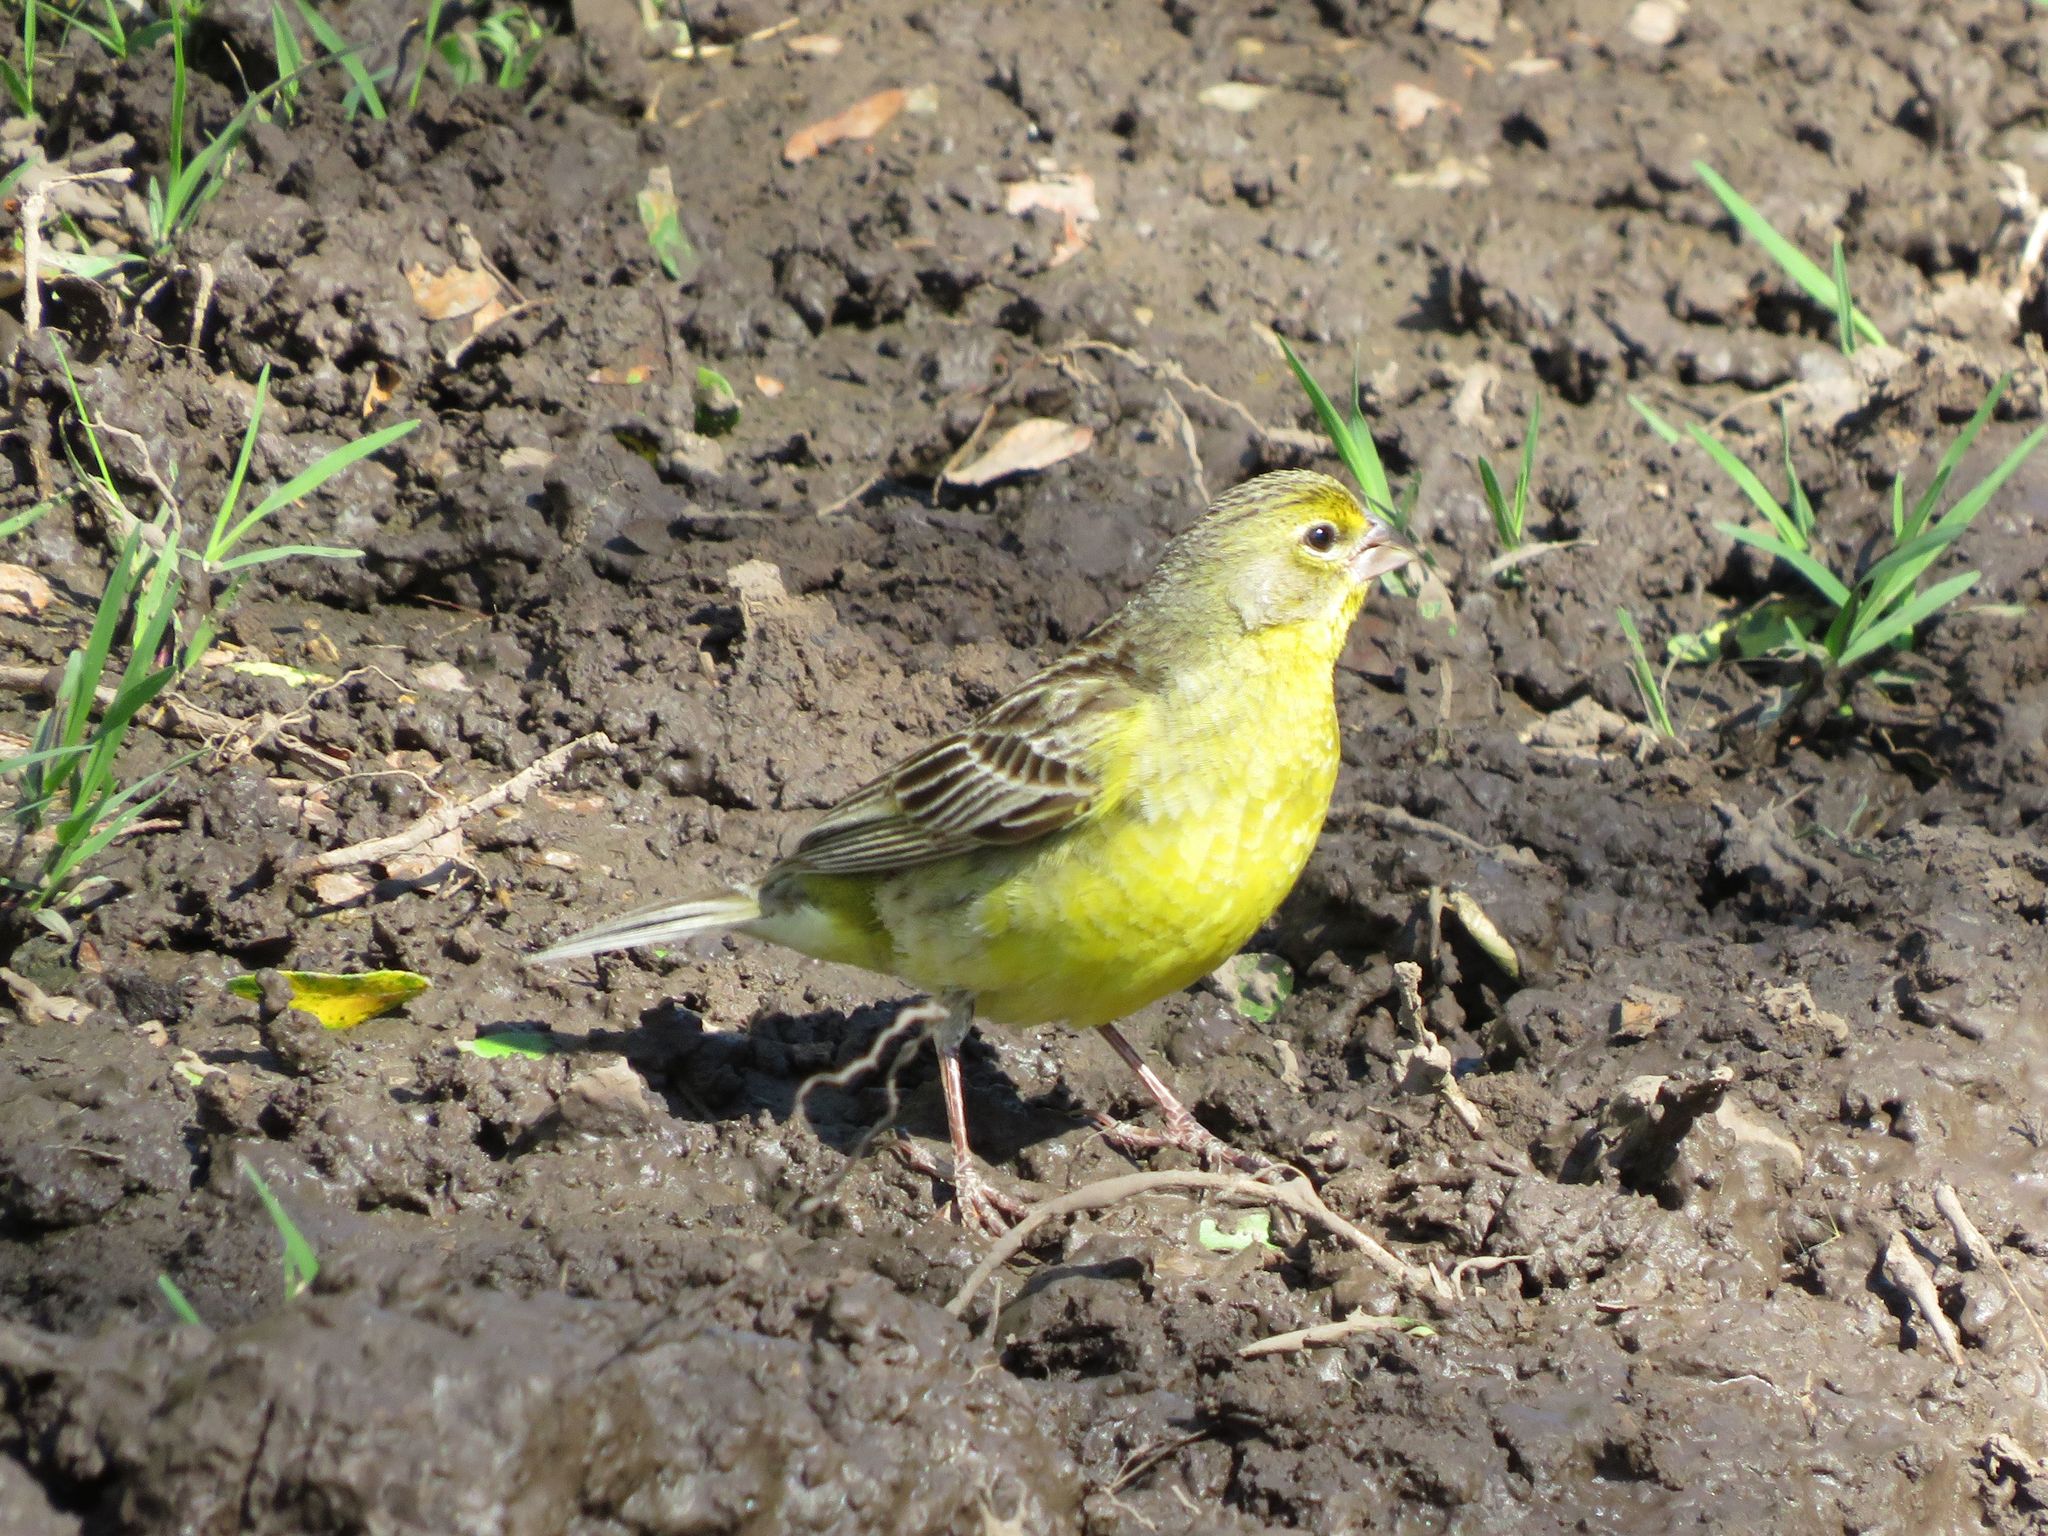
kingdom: Animalia
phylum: Chordata
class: Aves
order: Passeriformes
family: Thraupidae
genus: Sicalis
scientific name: Sicalis luteola
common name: Grassland yellow-finch
